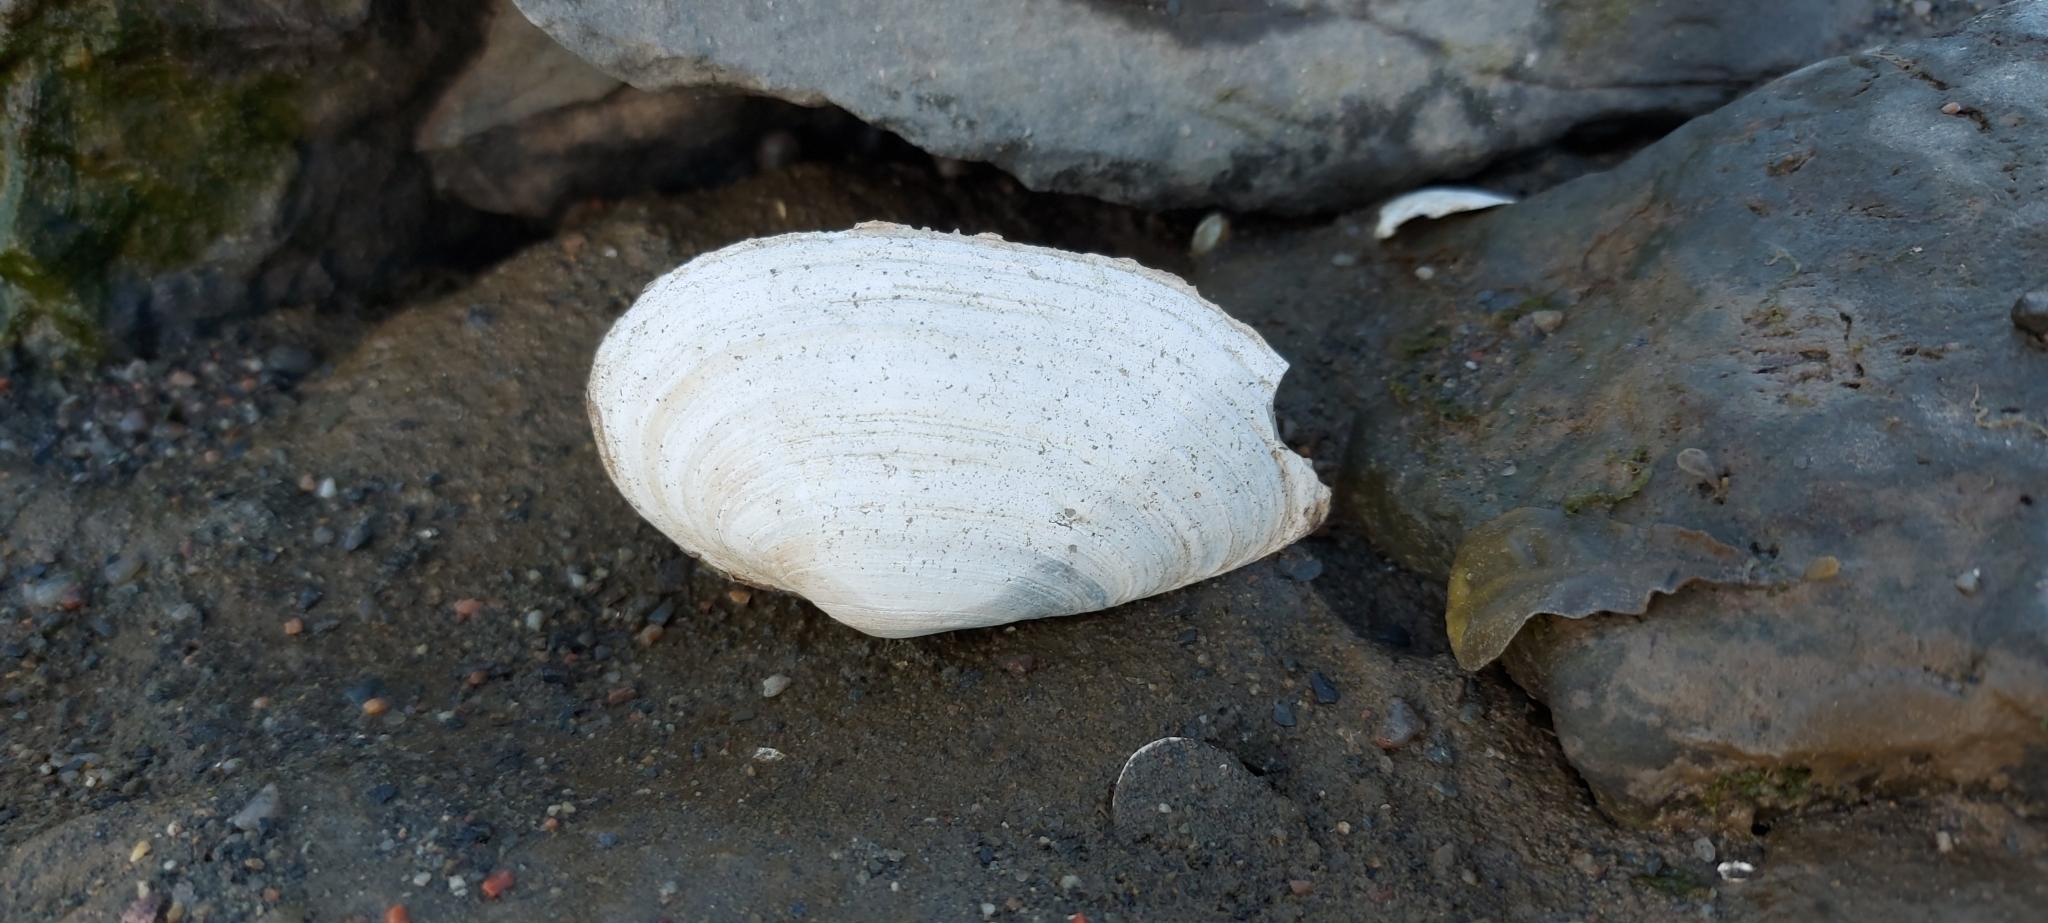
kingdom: Animalia
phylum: Mollusca
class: Bivalvia
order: Myida
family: Myidae
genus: Mya
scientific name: Mya arenaria
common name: Soft-shelled clam
